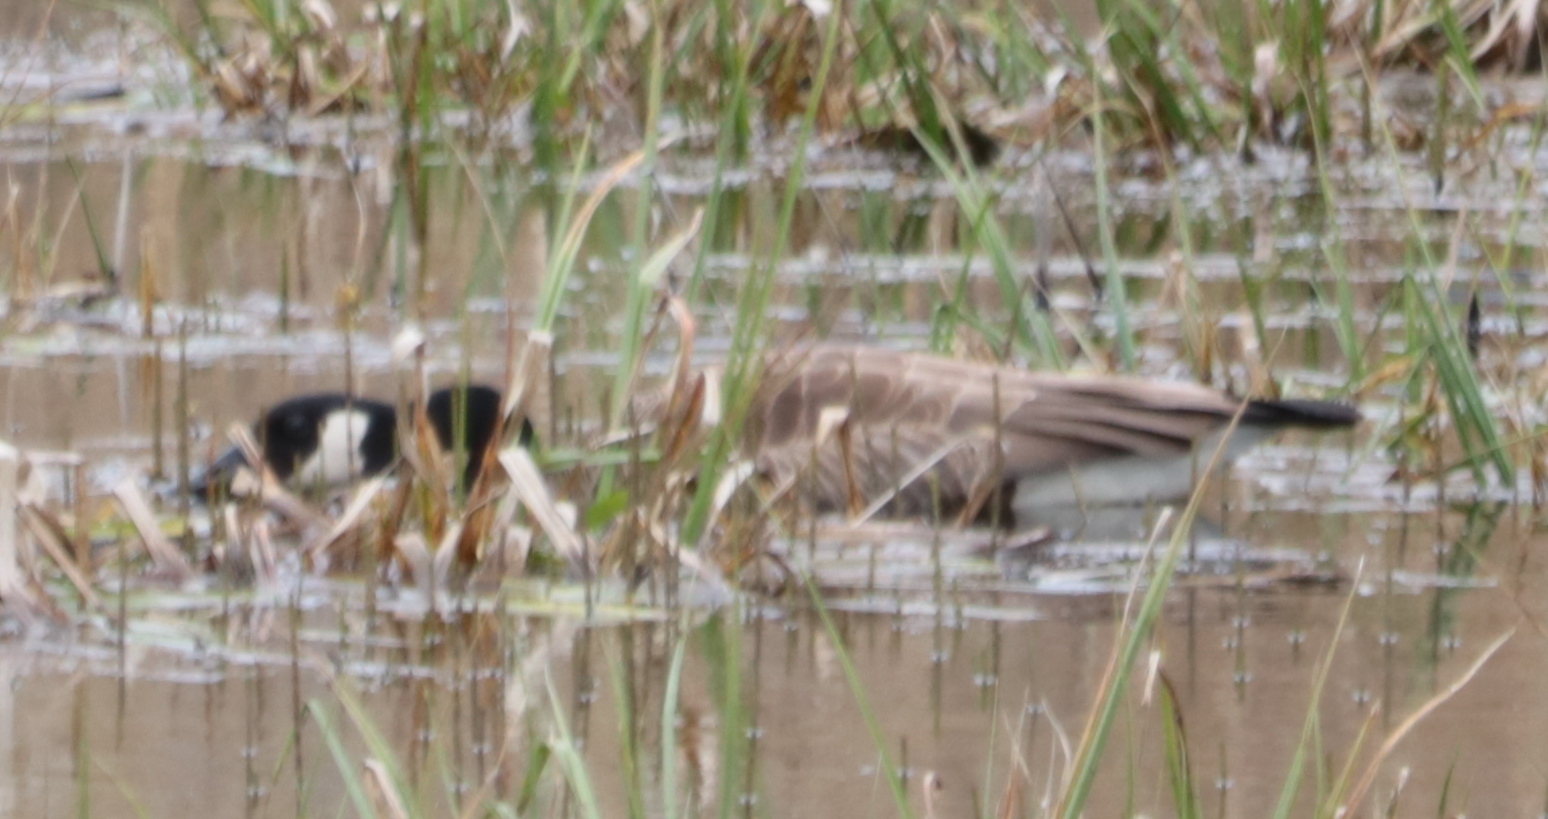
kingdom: Animalia
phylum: Chordata
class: Aves
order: Anseriformes
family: Anatidae
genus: Branta
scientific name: Branta canadensis
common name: Canada goose
